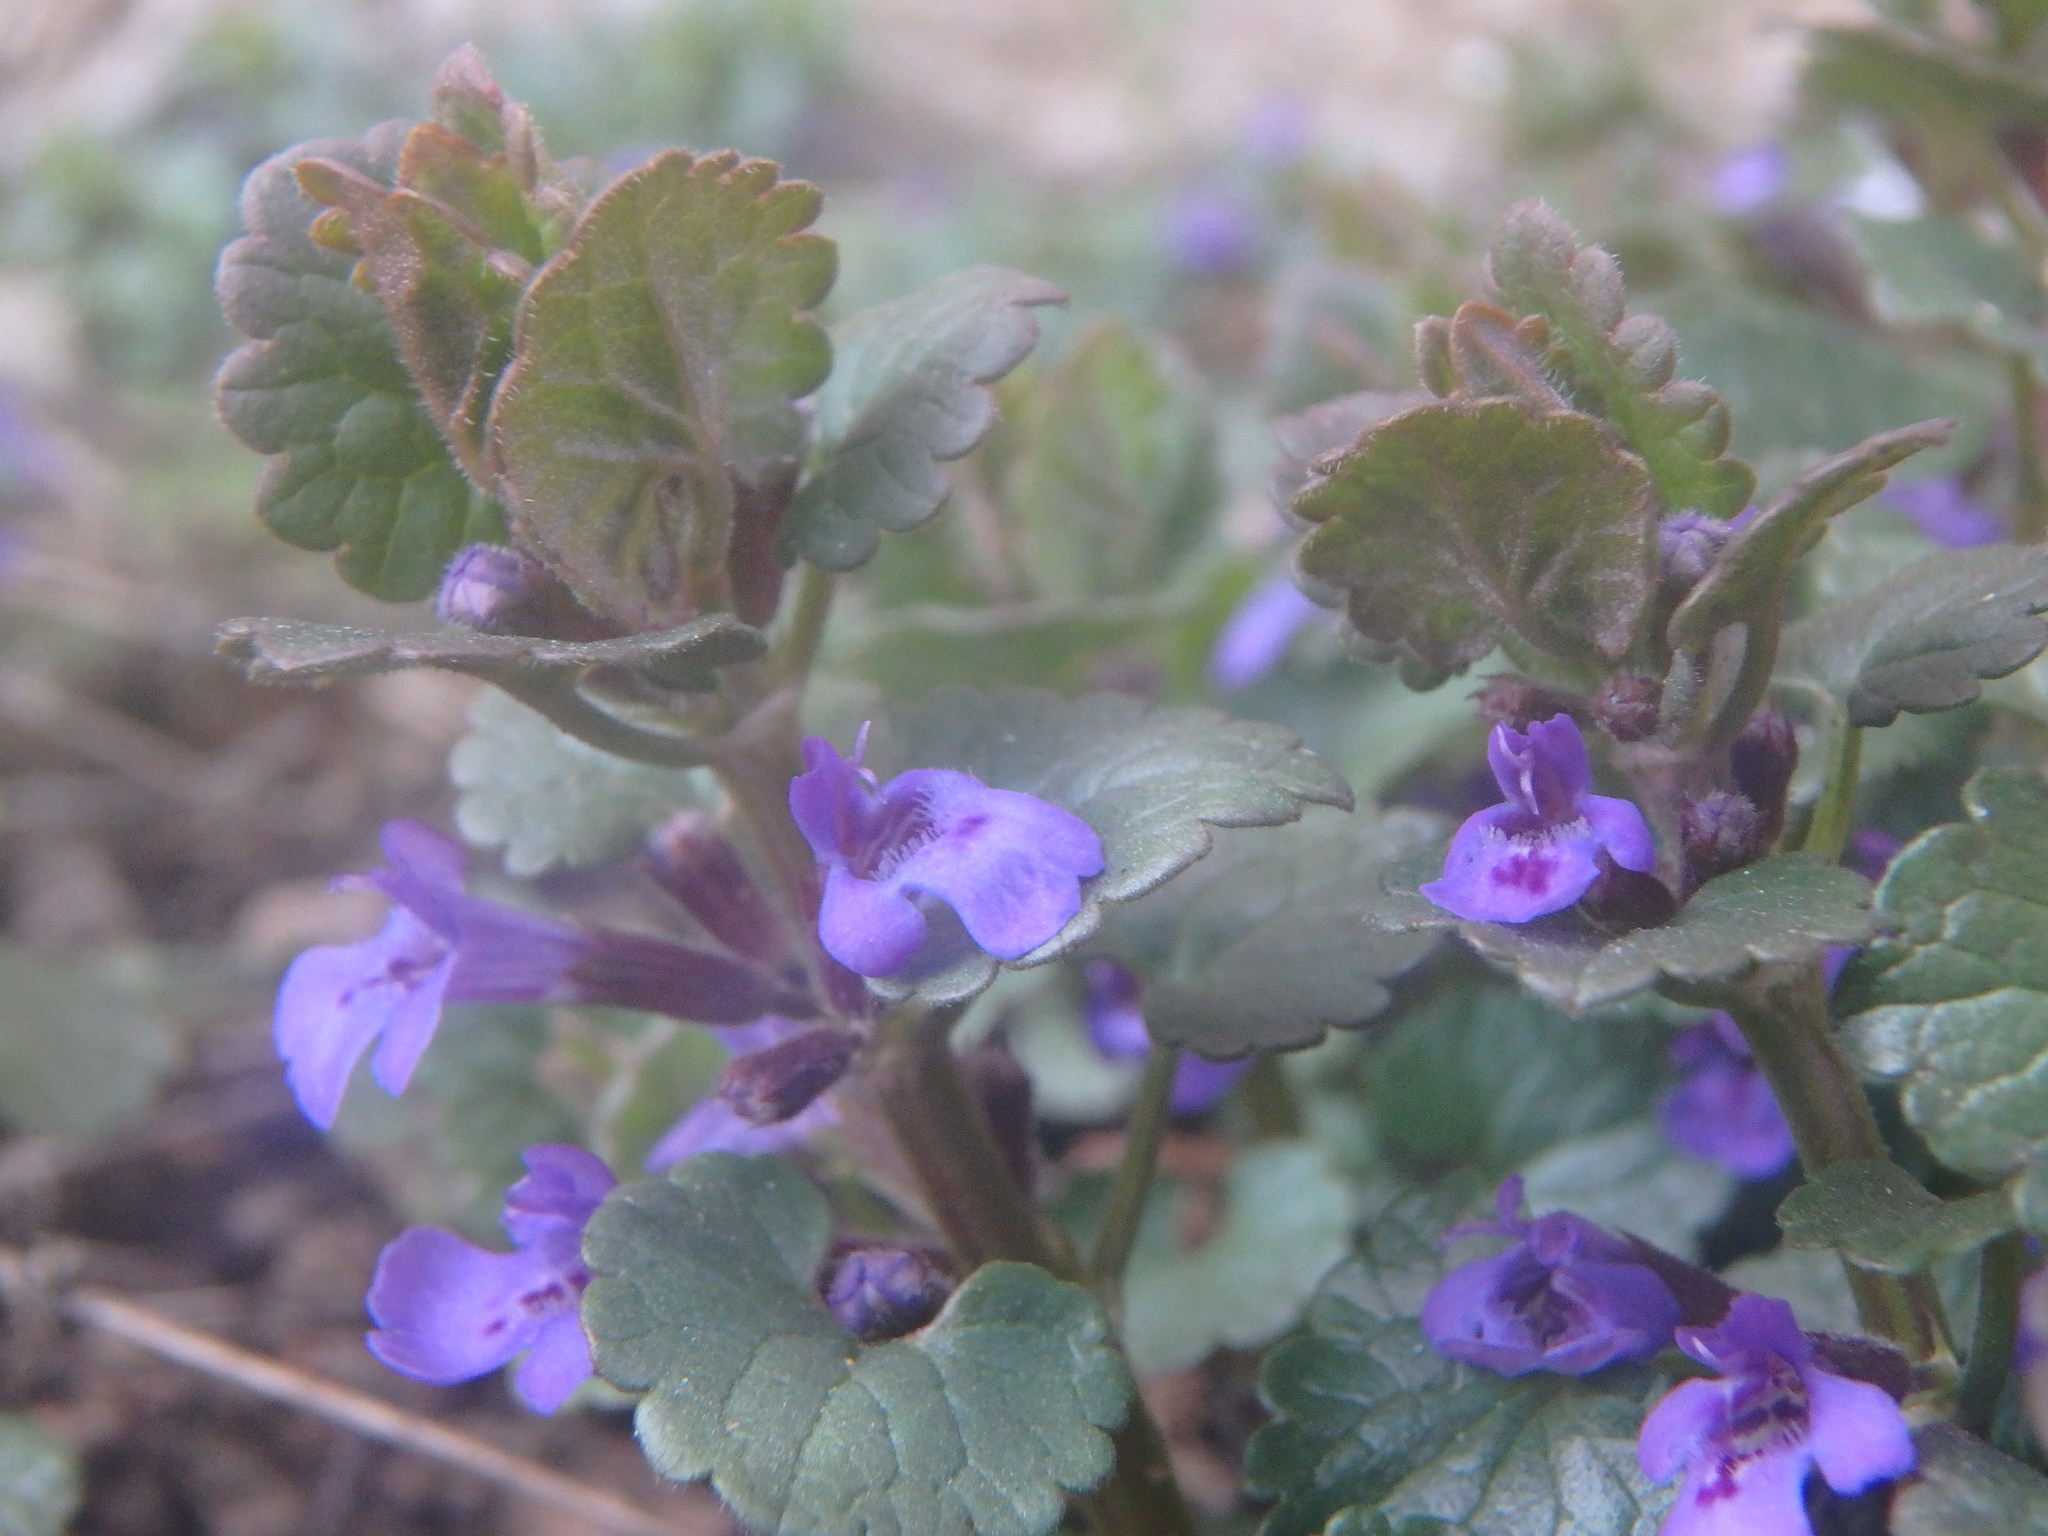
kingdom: Plantae
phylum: Tracheophyta
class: Magnoliopsida
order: Lamiales
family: Lamiaceae
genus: Glechoma
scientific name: Glechoma hederacea
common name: Ground ivy
